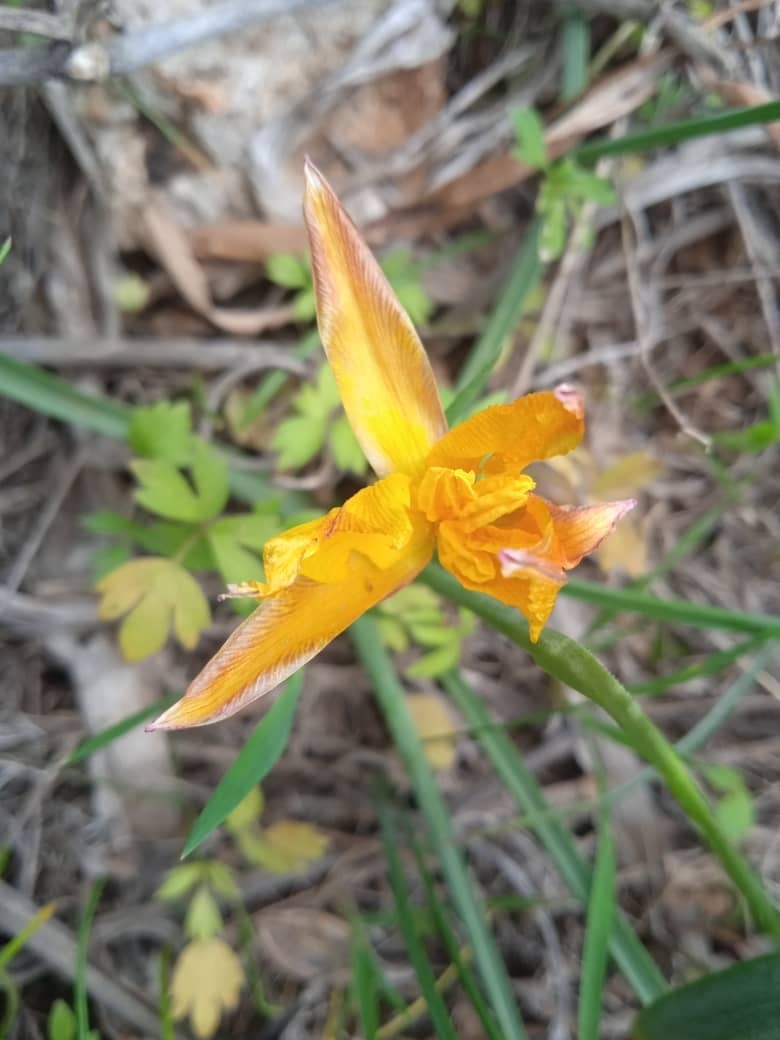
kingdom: Plantae
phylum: Tracheophyta
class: Liliopsida
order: Liliales
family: Liliaceae
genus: Tulipa
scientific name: Tulipa sylvestris
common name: Wild tulip
